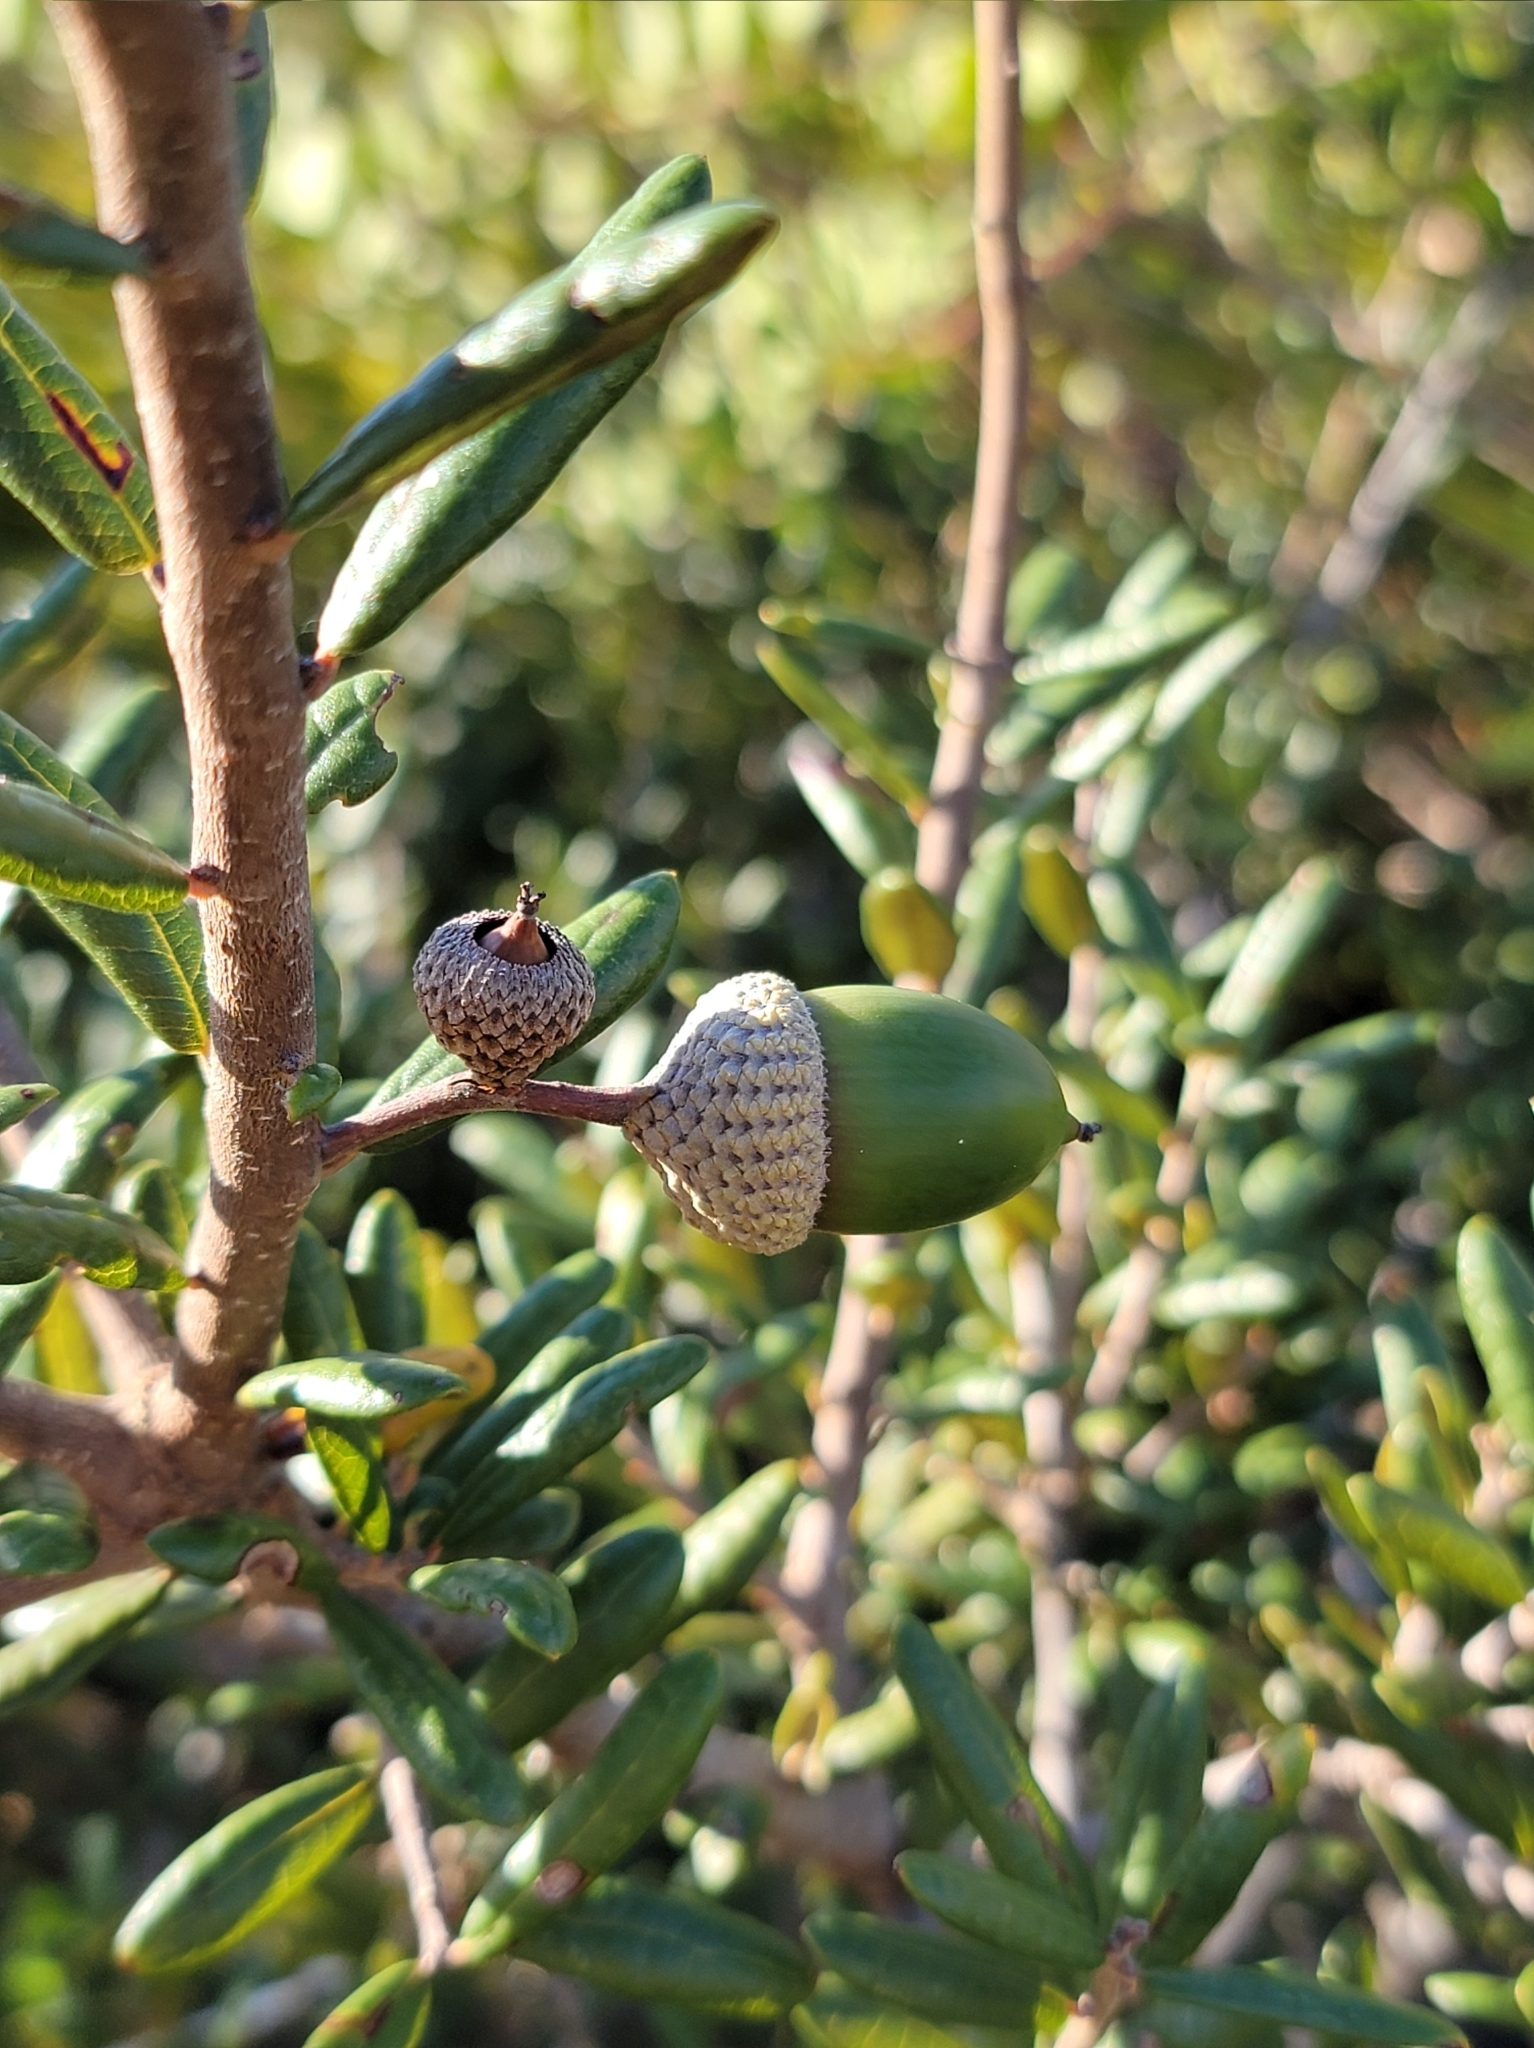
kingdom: Plantae
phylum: Tracheophyta
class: Magnoliopsida
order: Fagales
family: Fagaceae
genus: Quercus
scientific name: Quercus geminata
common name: Sand live oak
